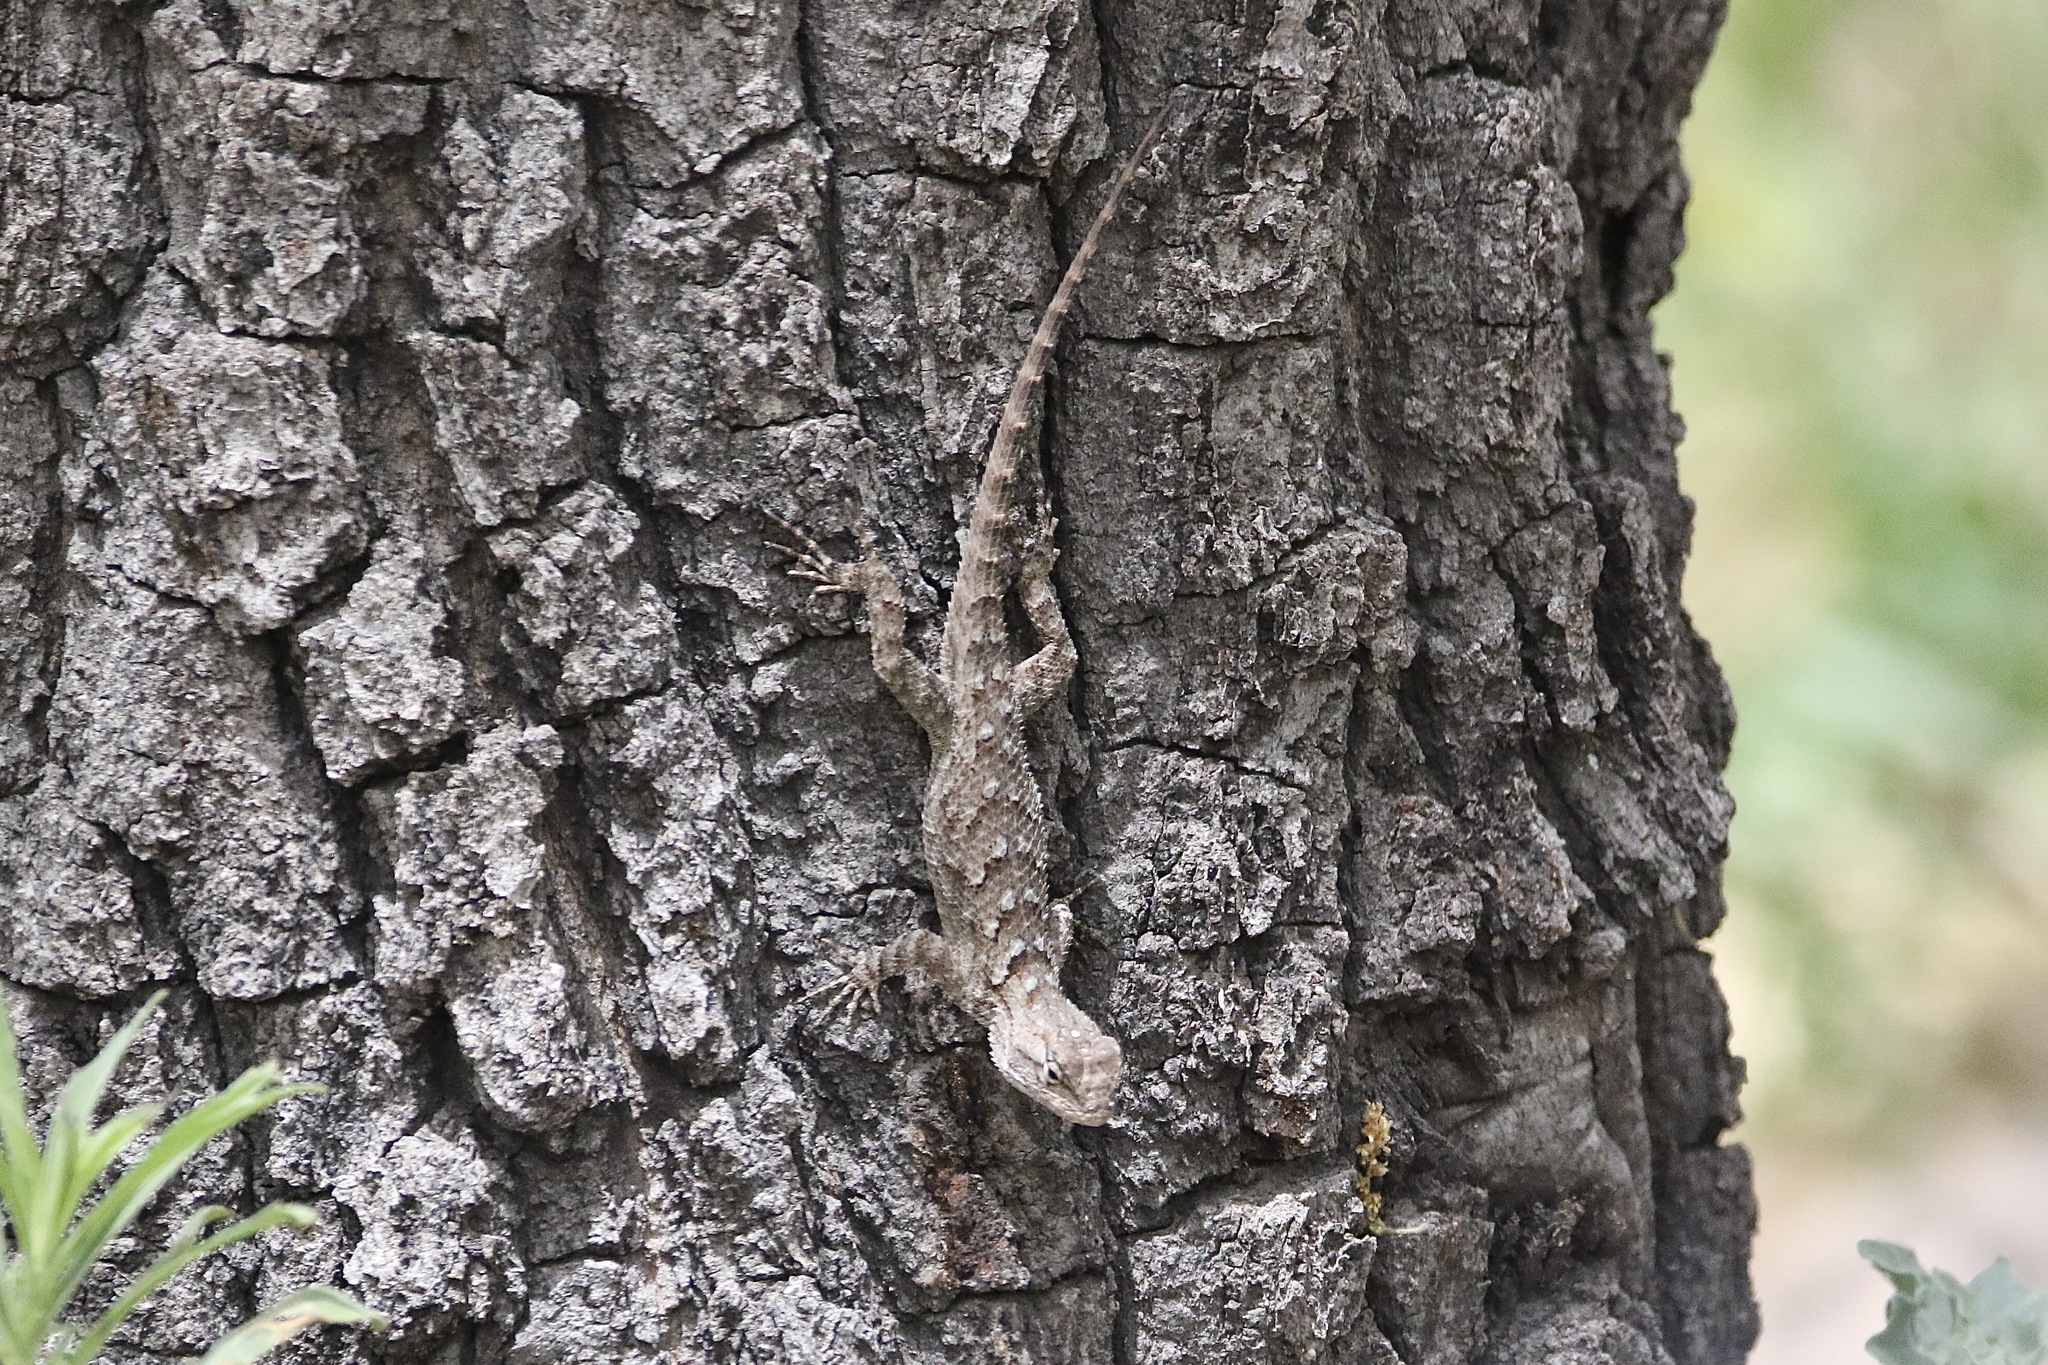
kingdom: Animalia
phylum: Chordata
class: Squamata
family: Phrynosomatidae
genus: Sceloporus
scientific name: Sceloporus clarkii
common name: Clark's spiny lizard
